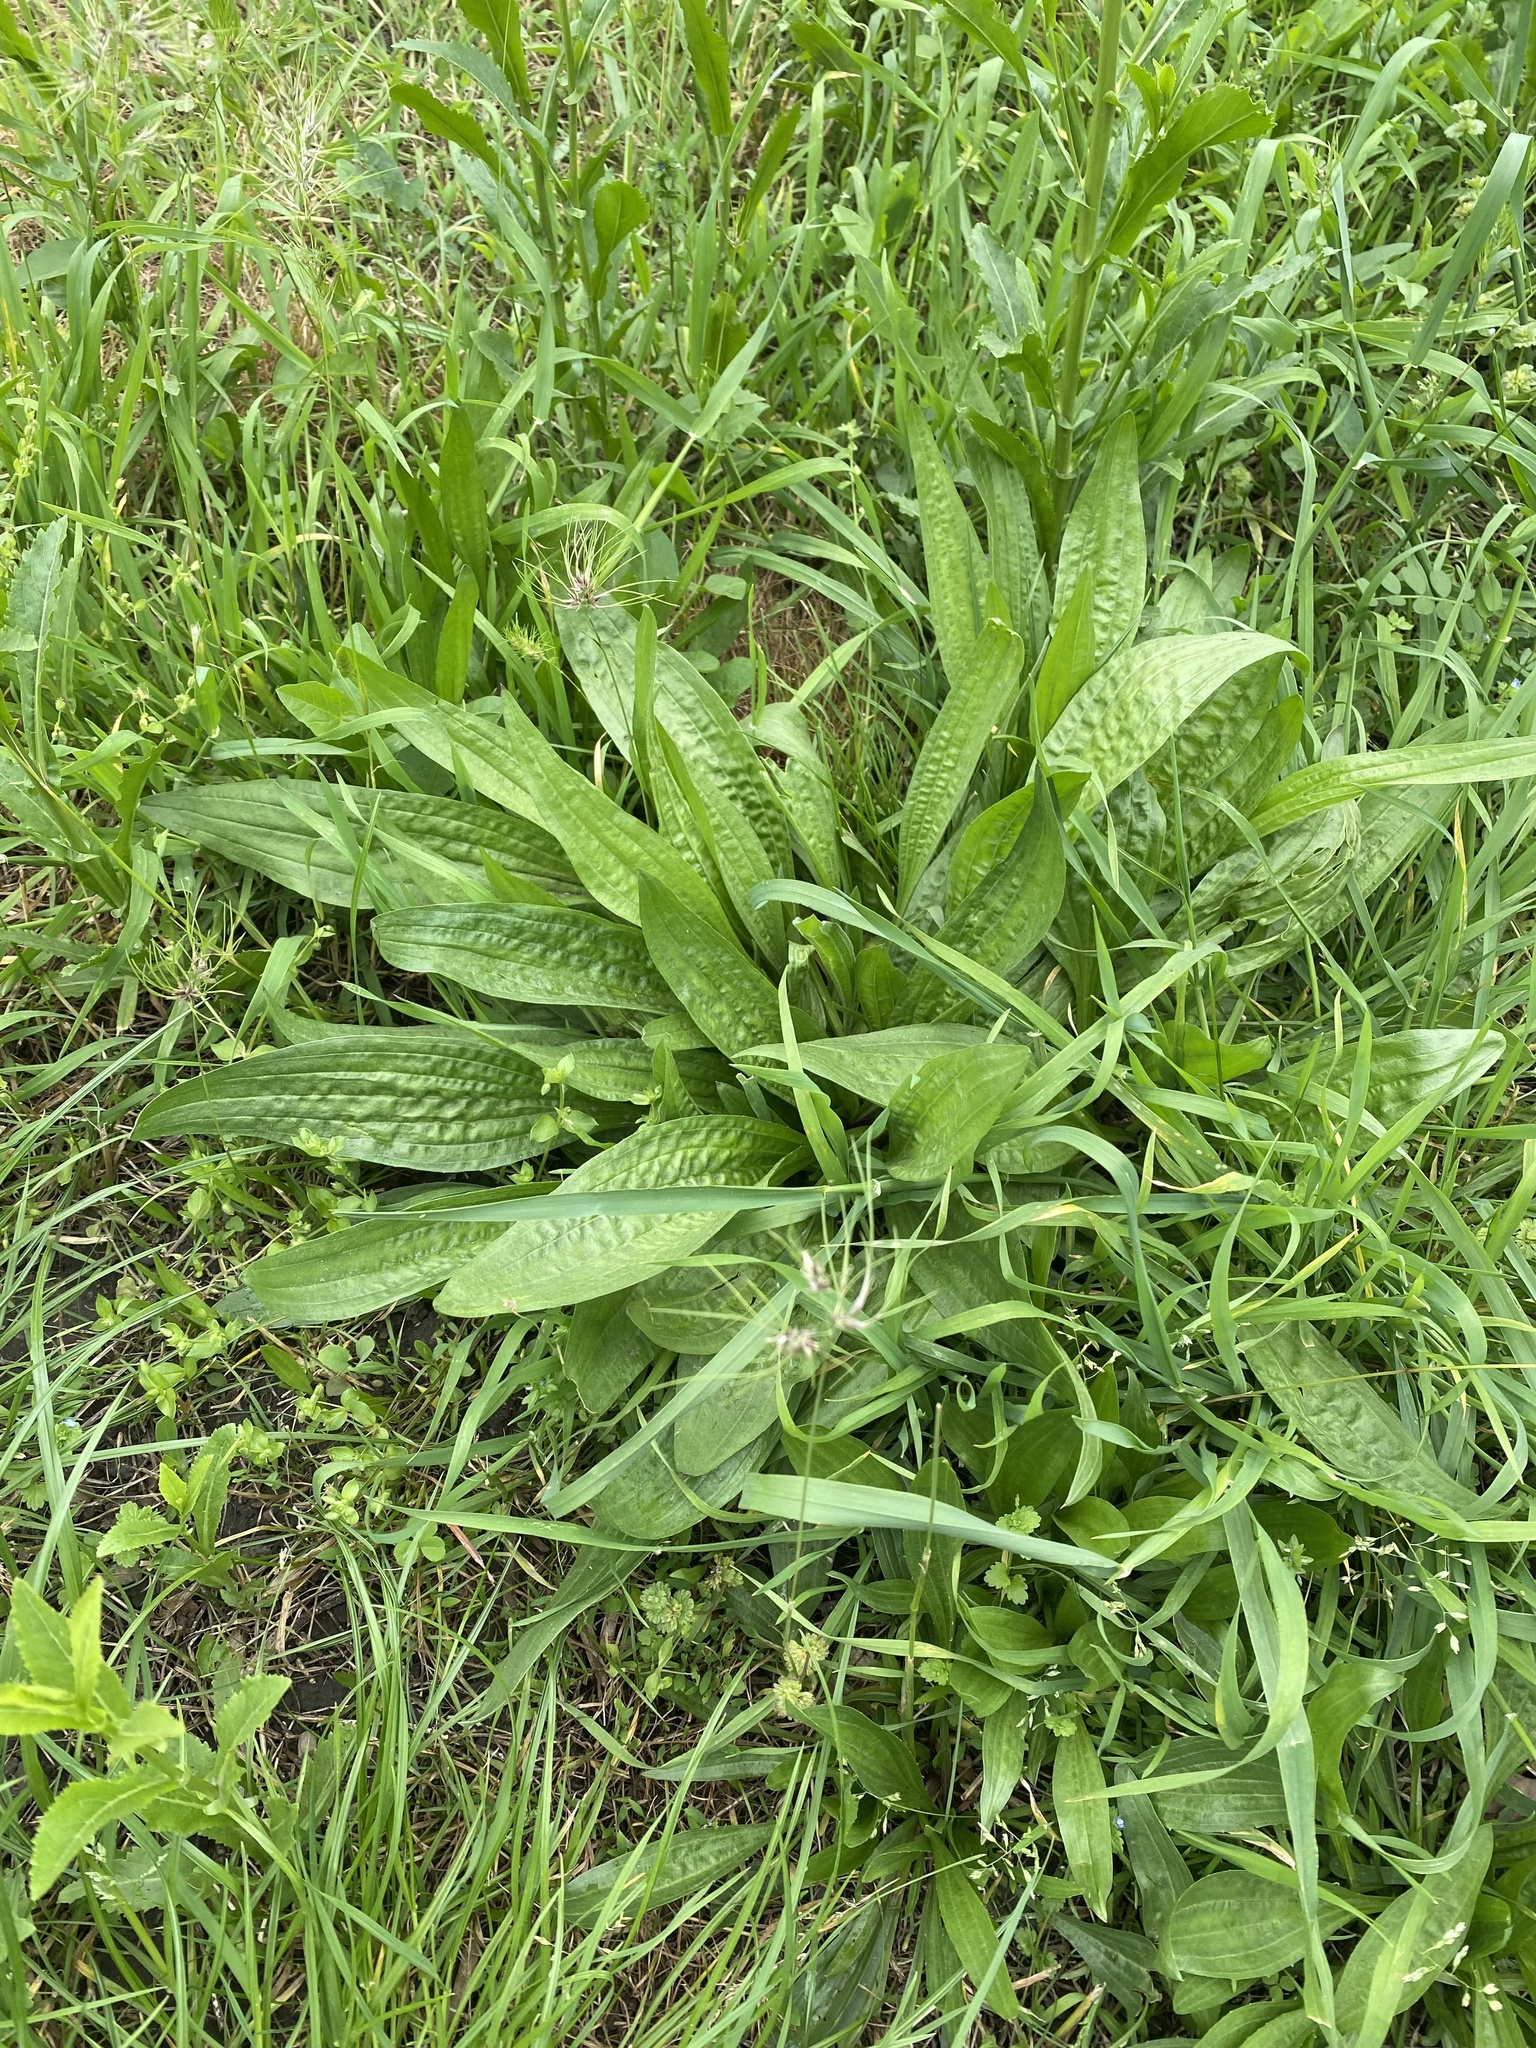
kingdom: Plantae
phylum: Tracheophyta
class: Magnoliopsida
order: Lamiales
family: Plantaginaceae
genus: Plantago
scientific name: Plantago lanceolata
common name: Ribwort plantain
